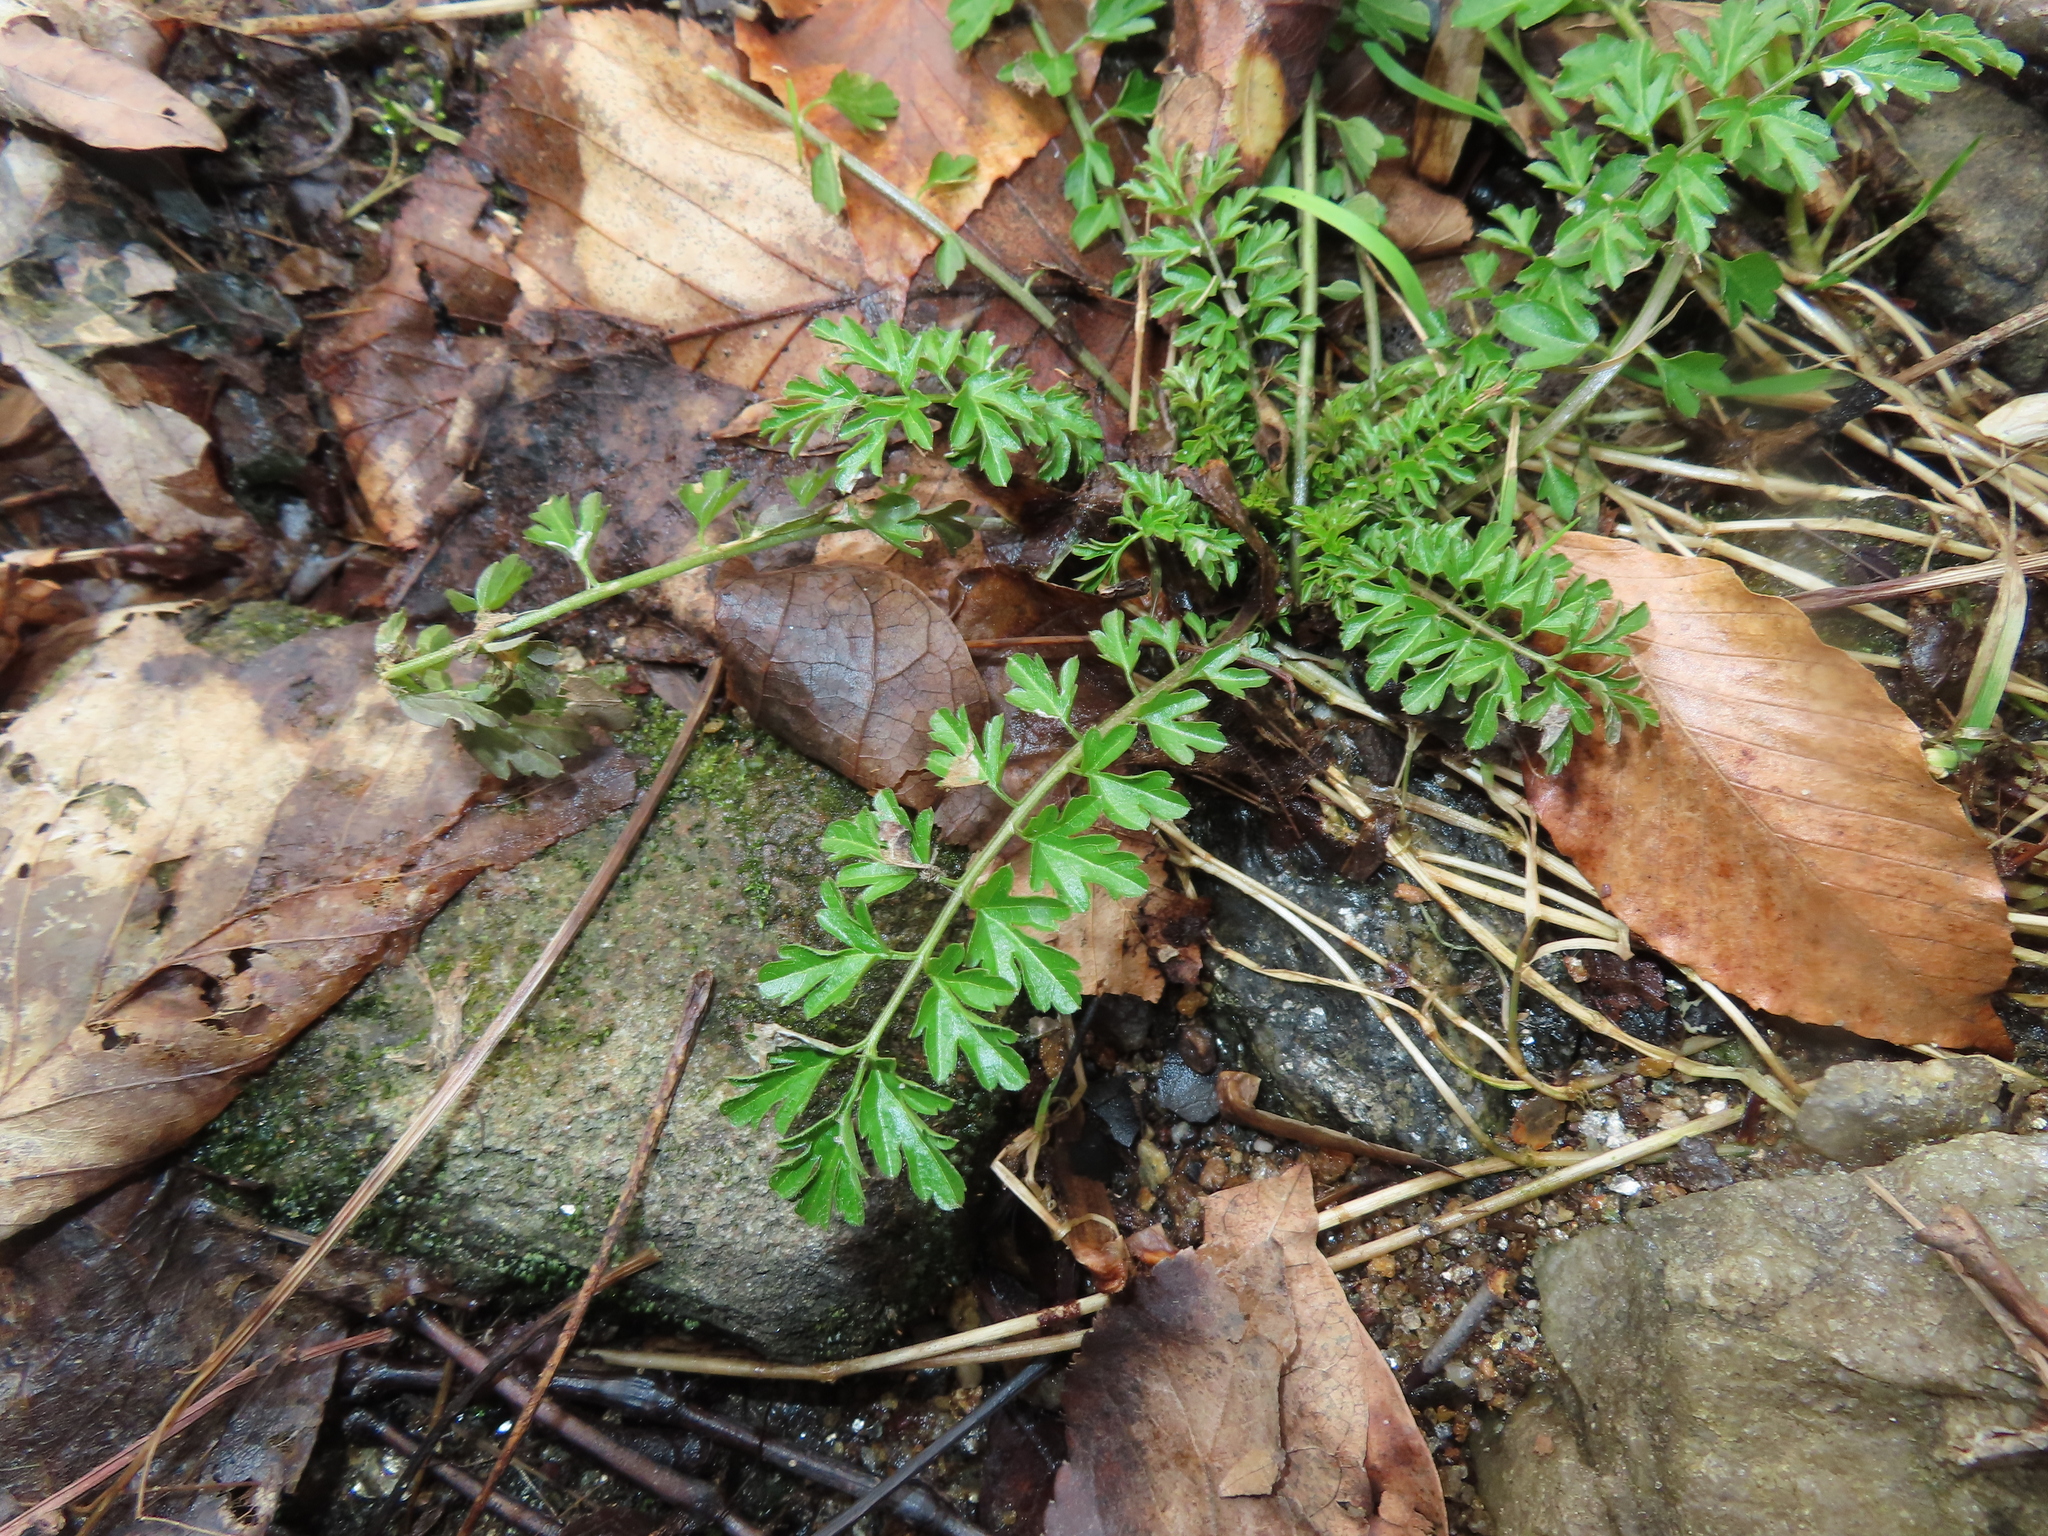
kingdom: Plantae
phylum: Tracheophyta
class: Magnoliopsida
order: Brassicales
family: Brassicaceae
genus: Cardamine
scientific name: Cardamine impatiens
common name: Narrow-leaved bitter-cress
